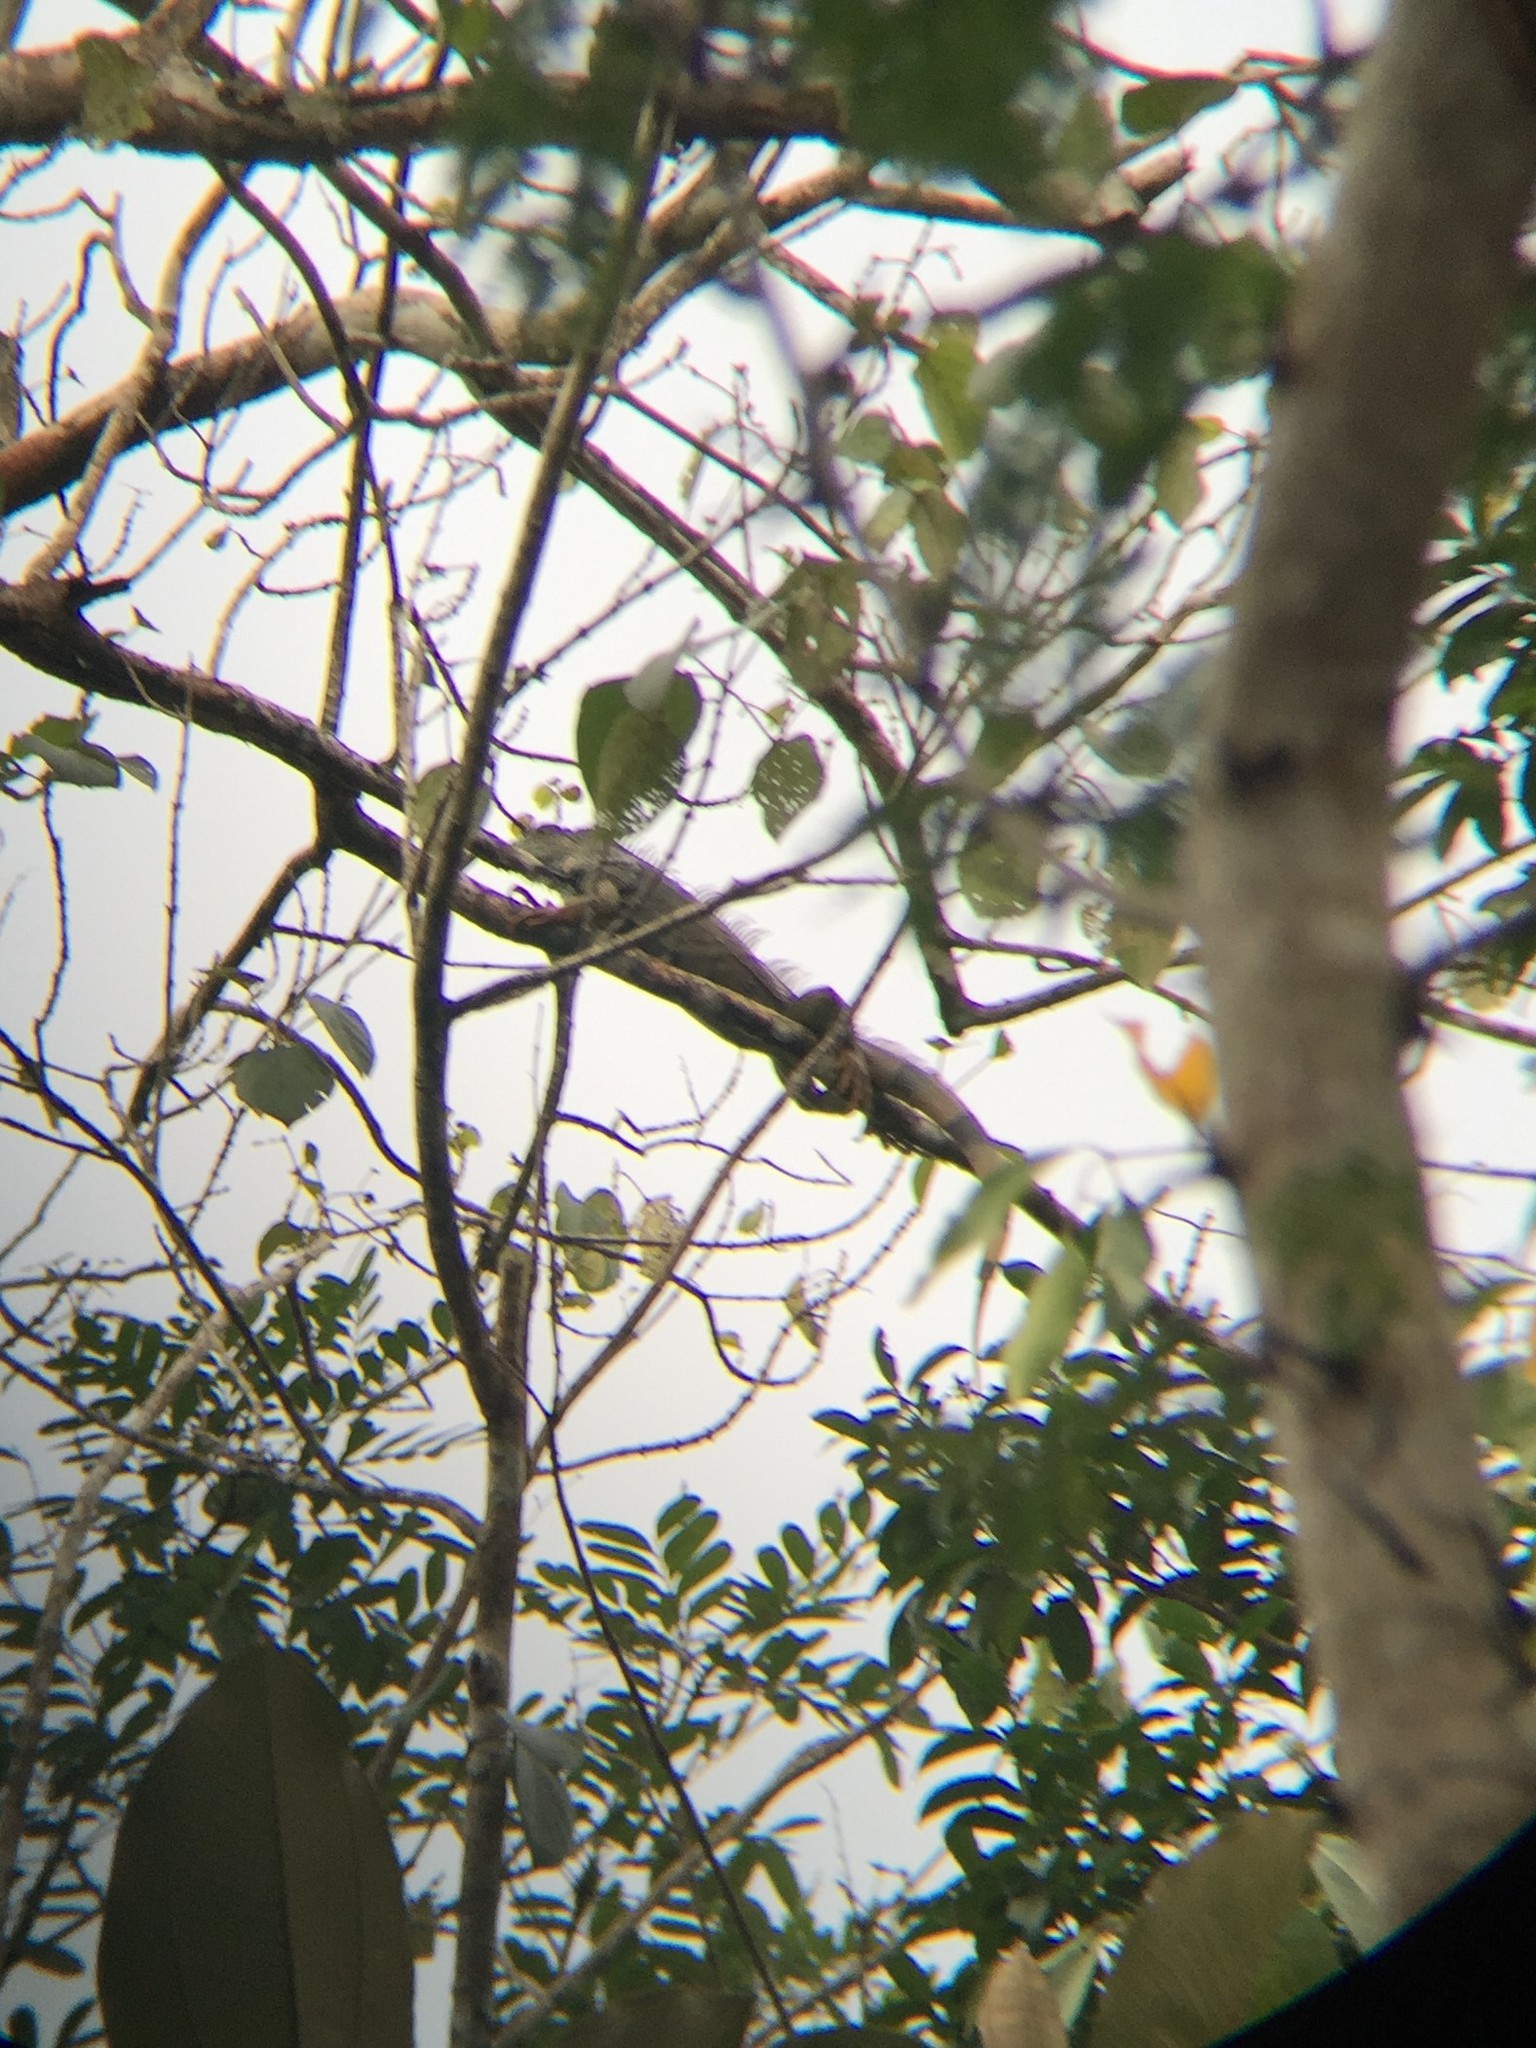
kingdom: Animalia
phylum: Chordata
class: Squamata
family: Iguanidae
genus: Iguana
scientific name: Iguana iguana
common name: Green iguana
